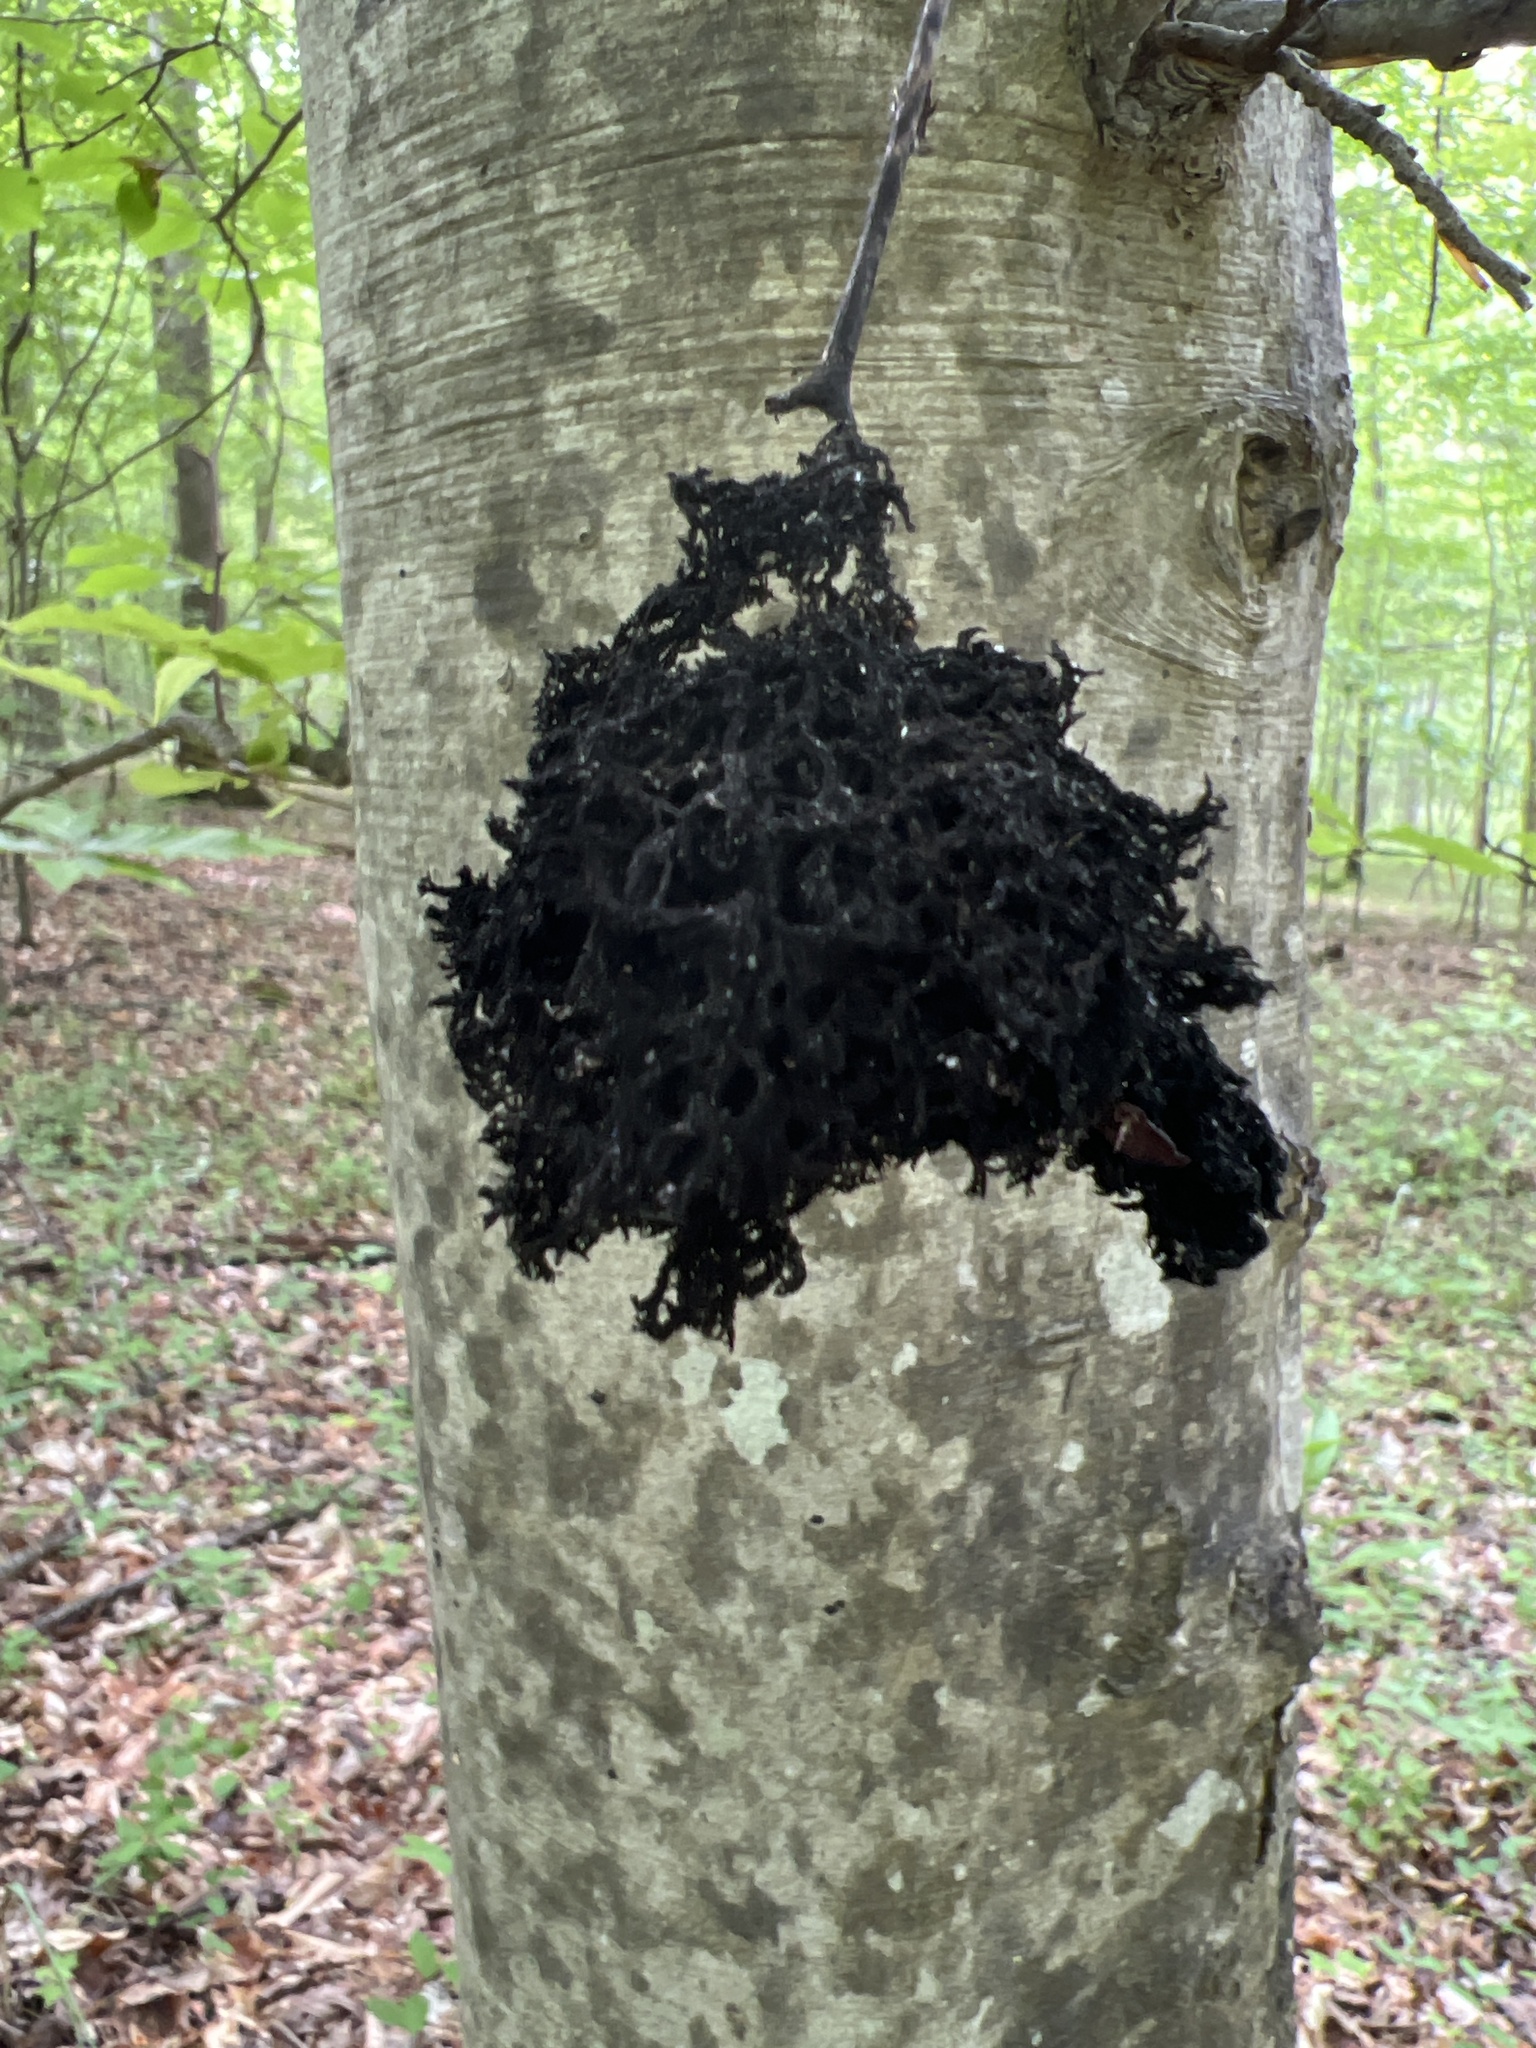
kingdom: Fungi
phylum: Ascomycota
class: Dothideomycetes
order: Capnodiales
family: Capnodiaceae
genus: Scorias
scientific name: Scorias spongiosa
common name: Black sooty mold
